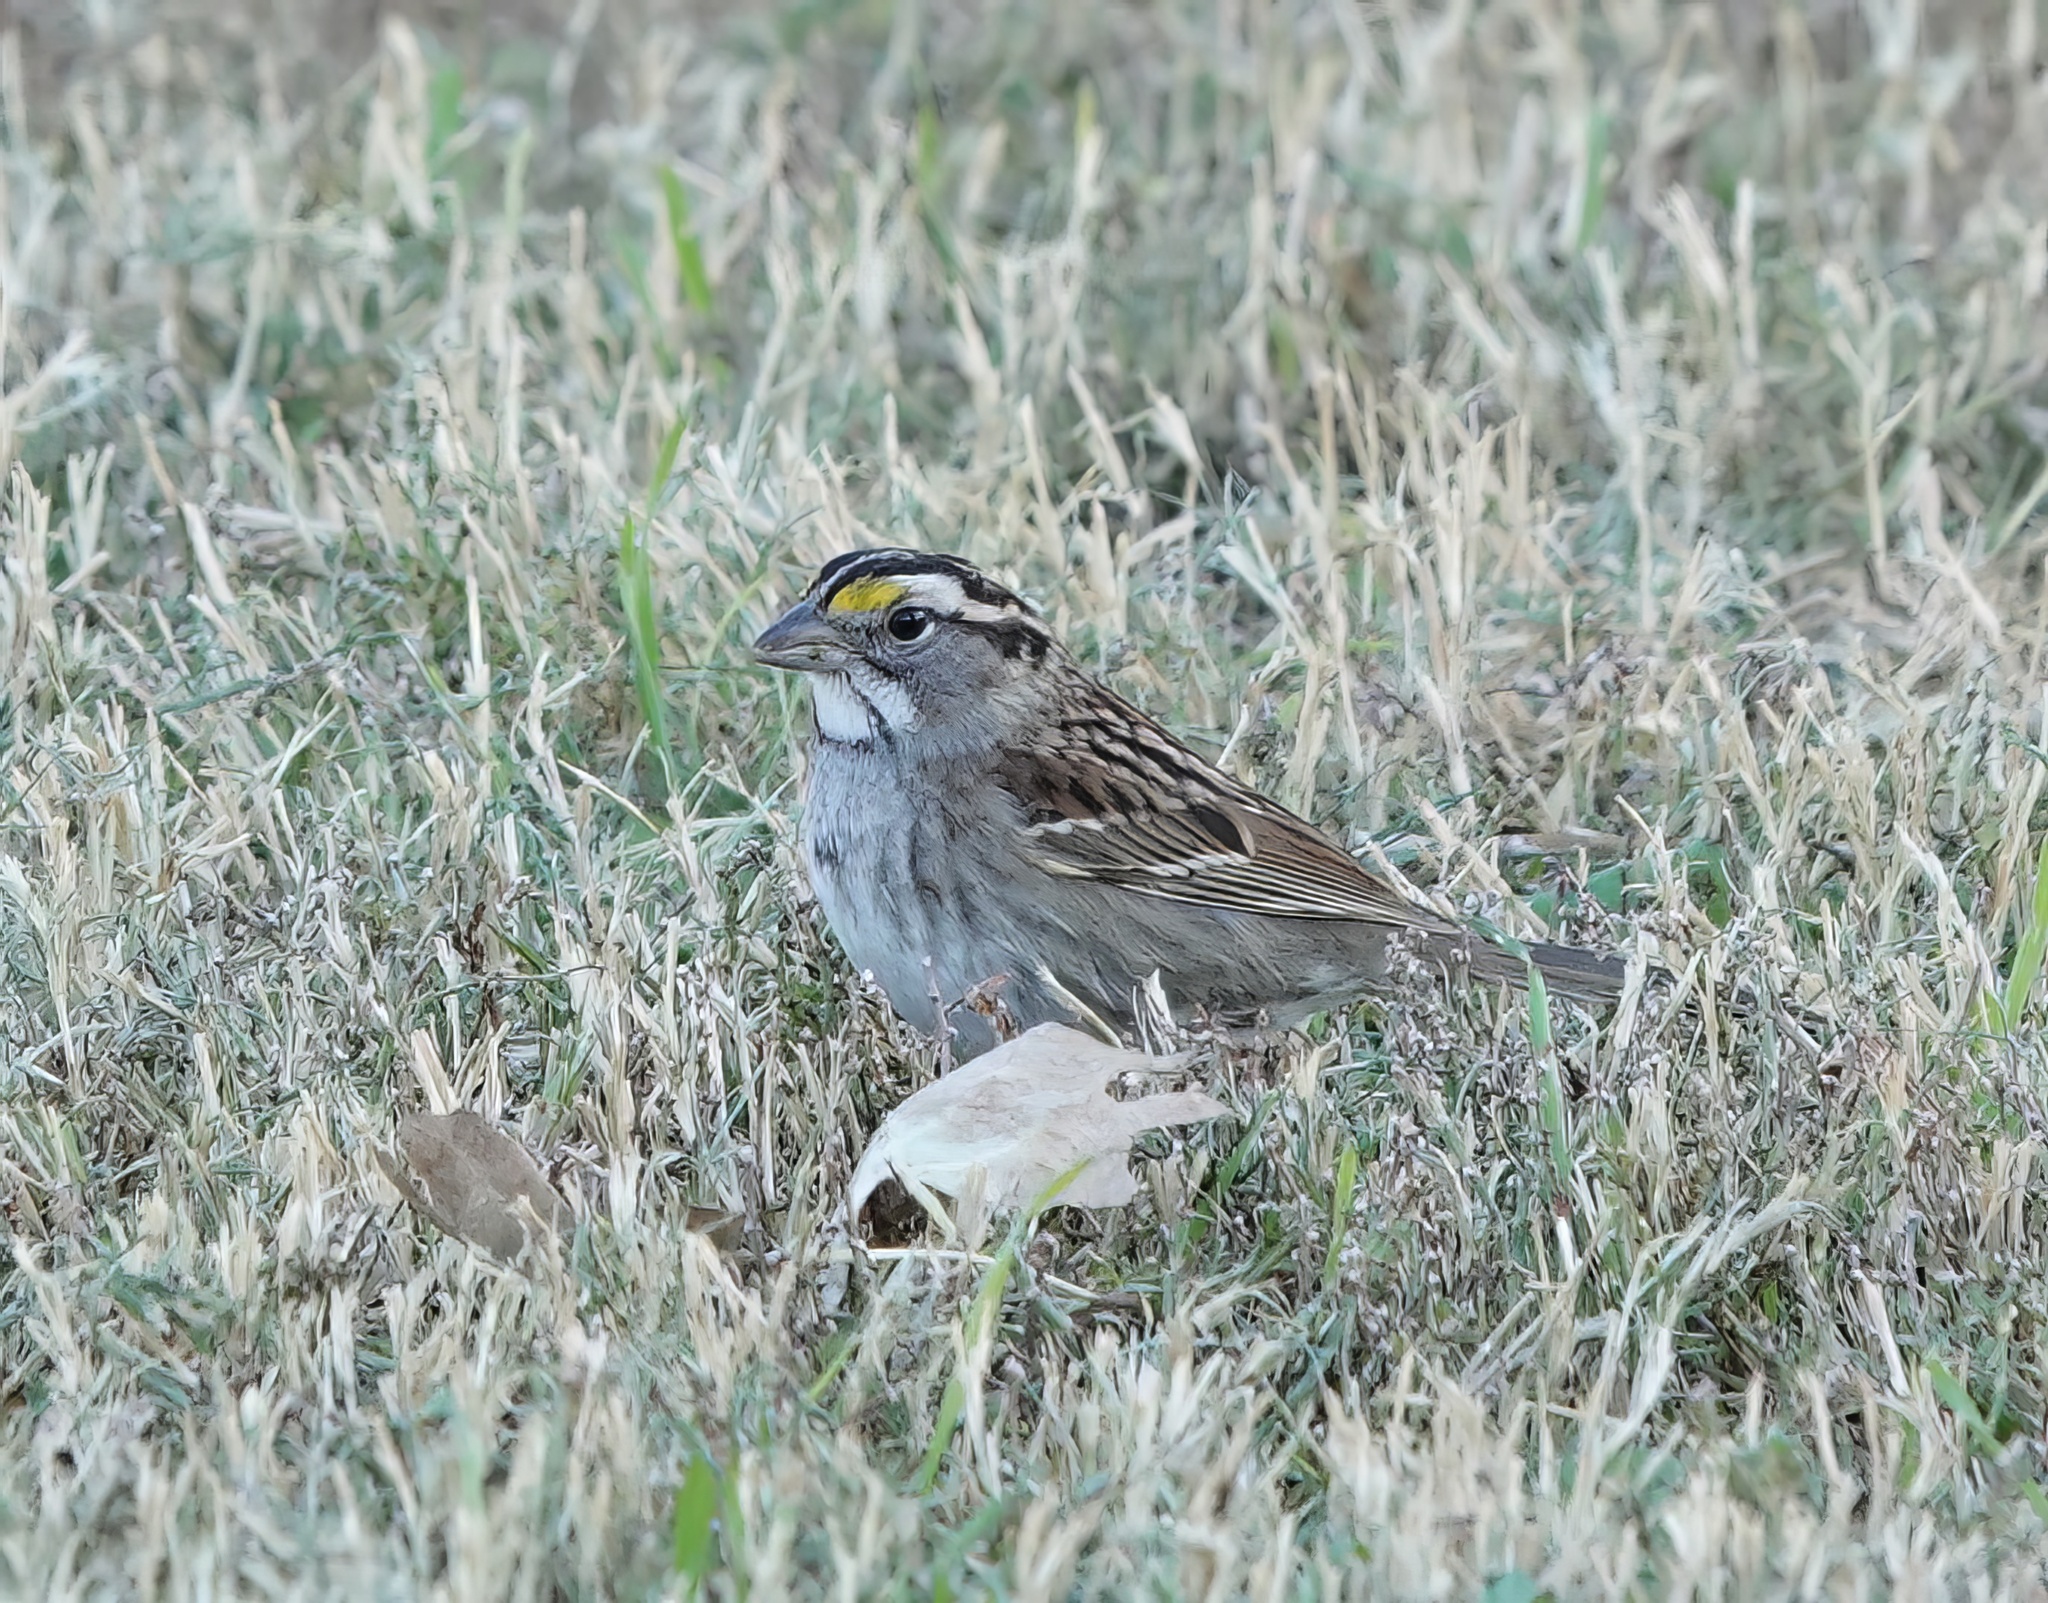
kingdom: Animalia
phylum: Chordata
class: Aves
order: Passeriformes
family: Passerellidae
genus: Zonotrichia
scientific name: Zonotrichia albicollis
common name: White-throated sparrow
